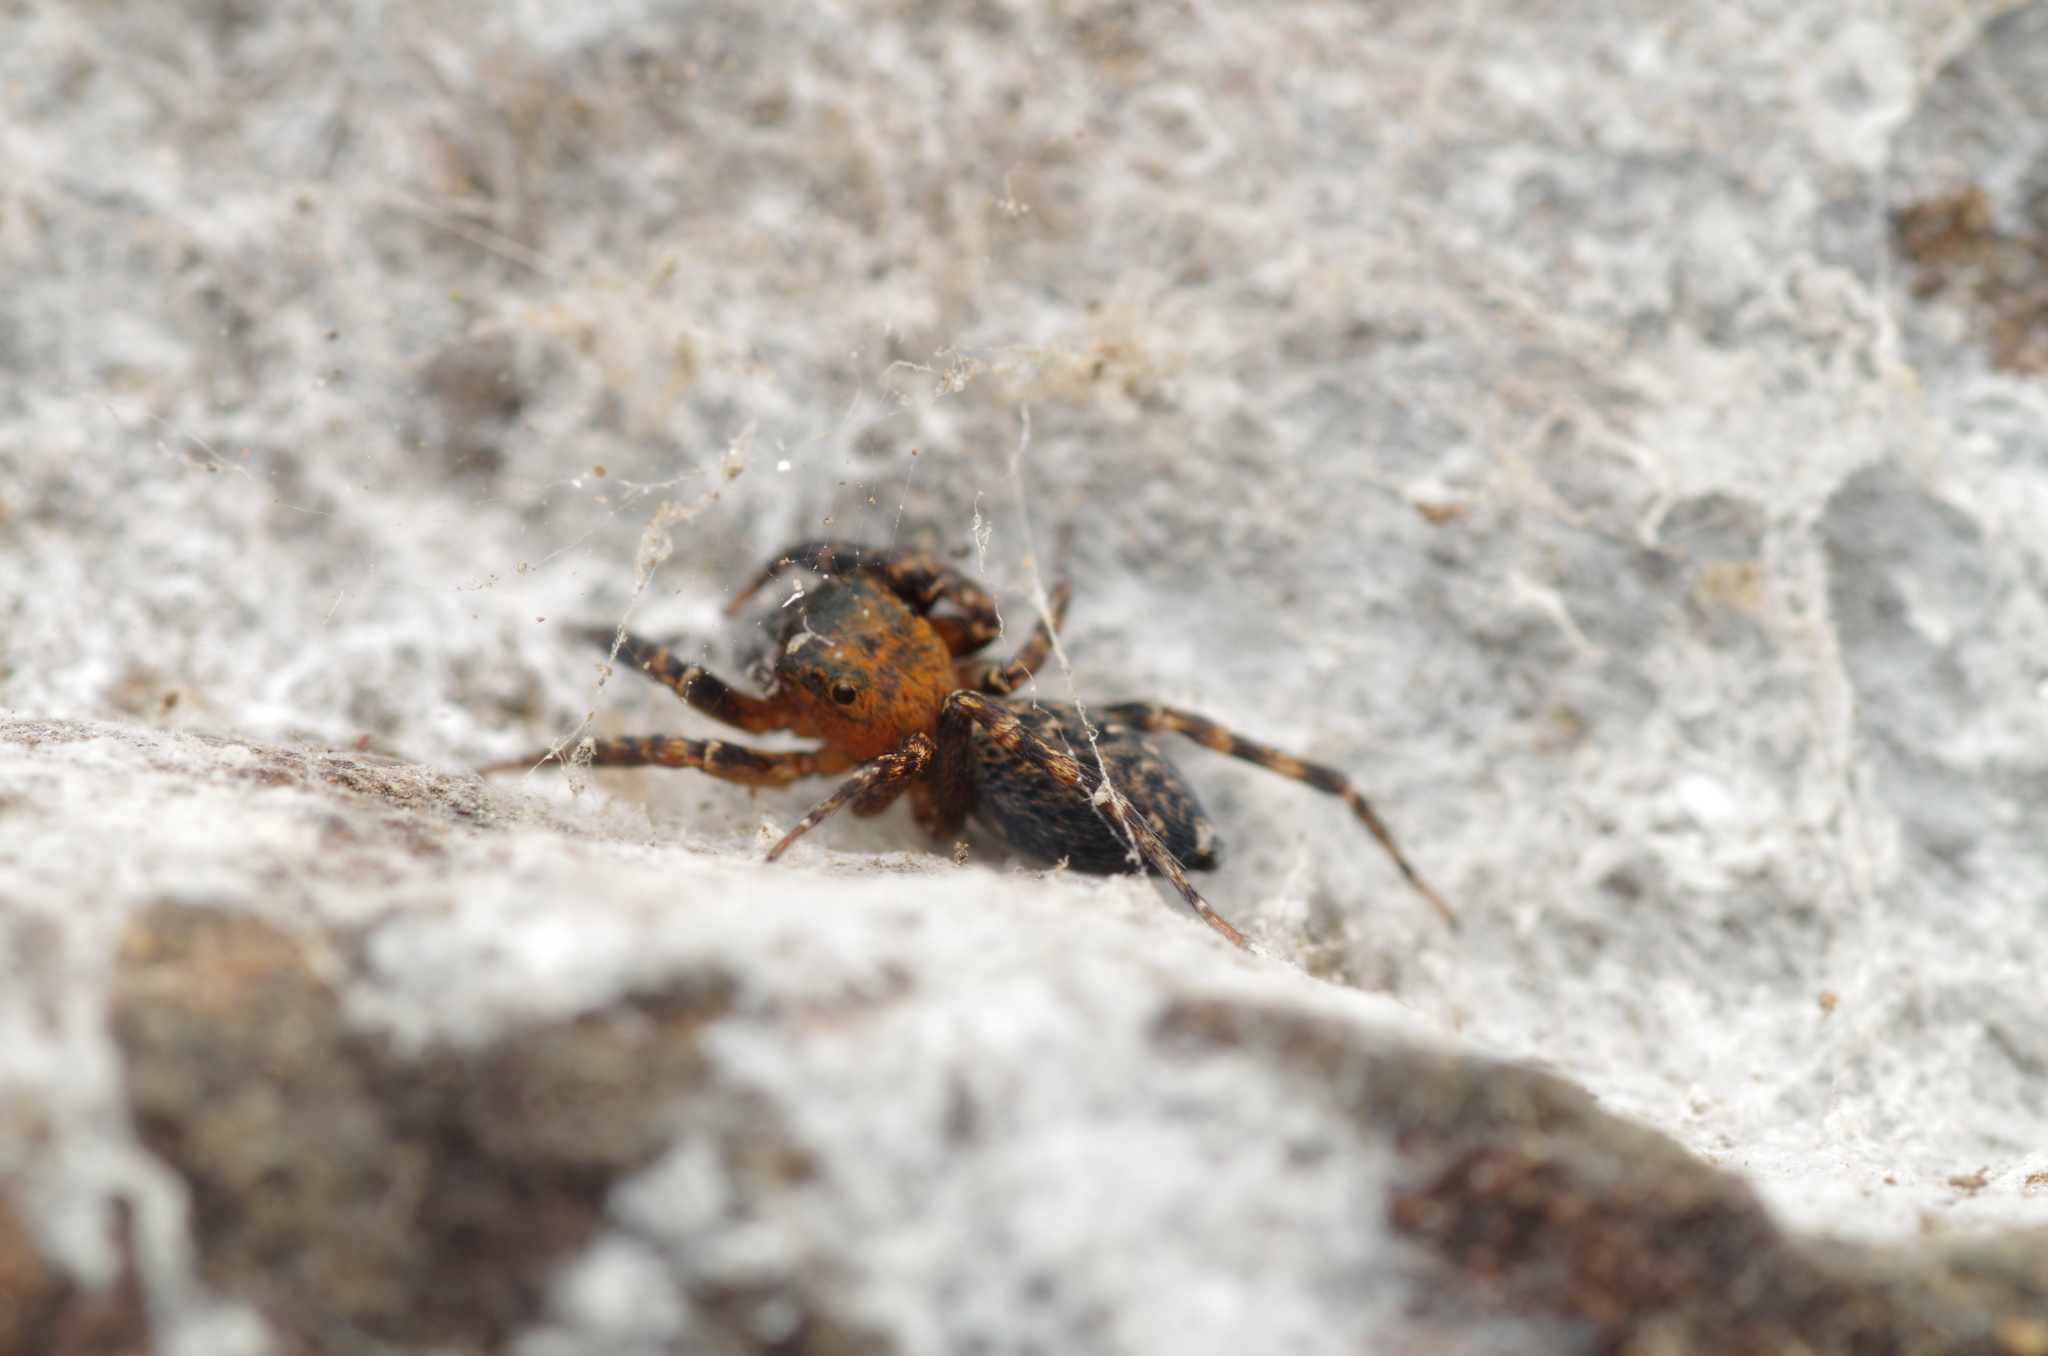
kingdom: Animalia
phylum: Arthropoda
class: Arachnida
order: Araneae
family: Salticidae
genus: Cyrba
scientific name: Cyrba algerina
